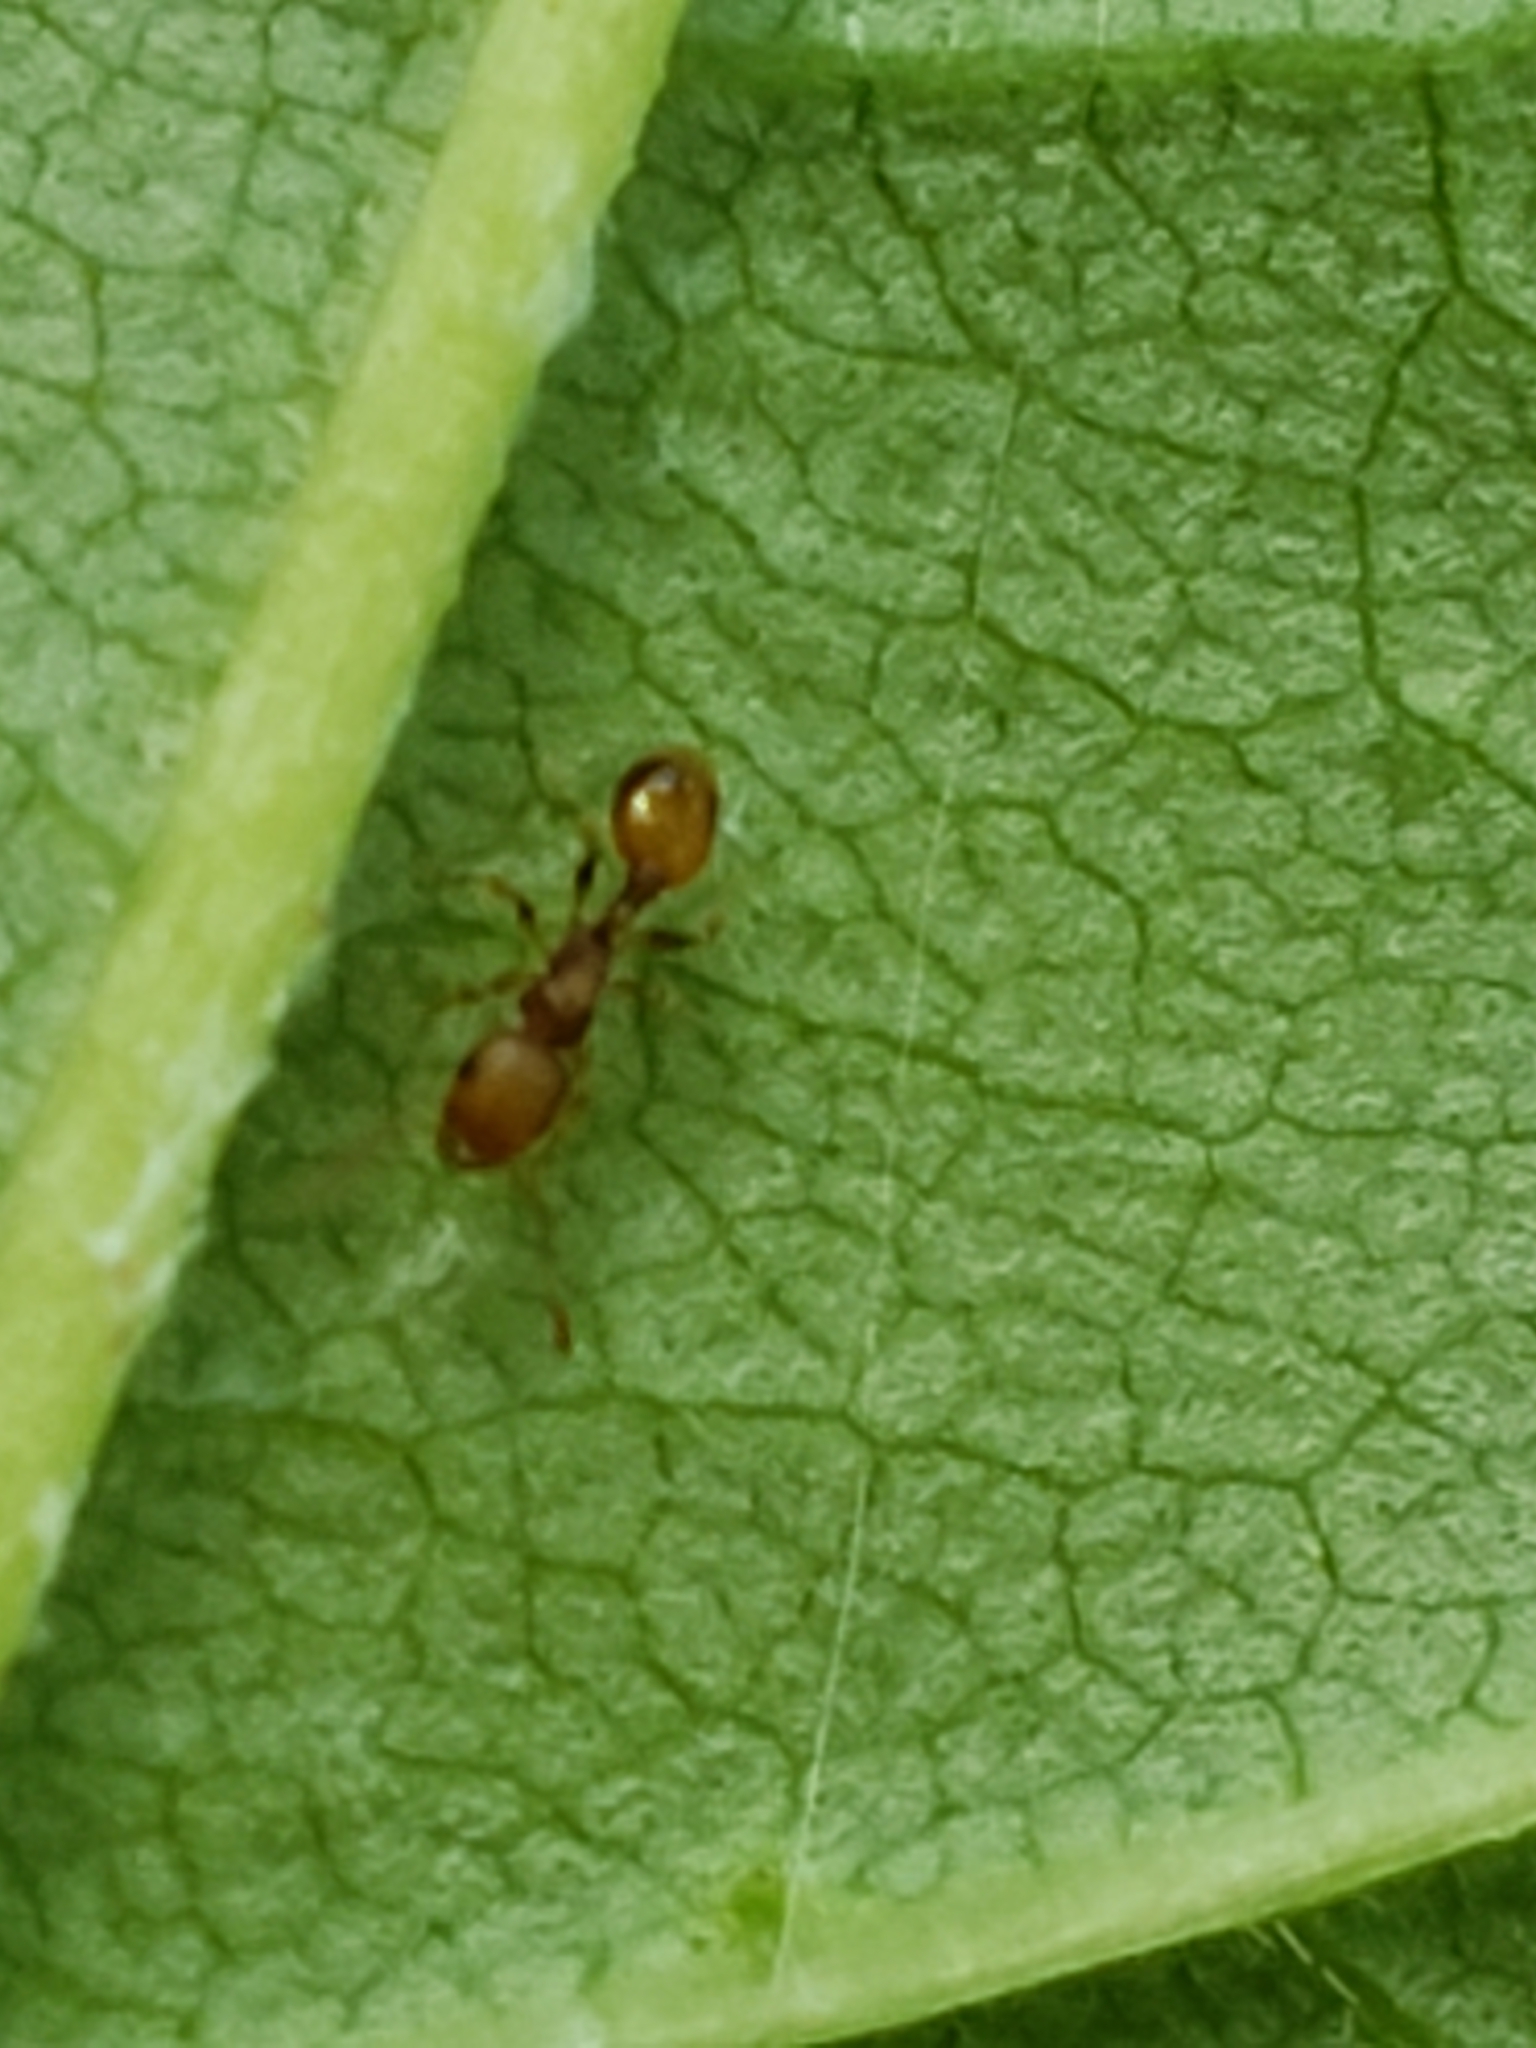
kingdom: Animalia
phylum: Arthropoda
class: Insecta
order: Hymenoptera
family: Formicidae
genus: Temnothorax
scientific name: Temnothorax curvispinosus
